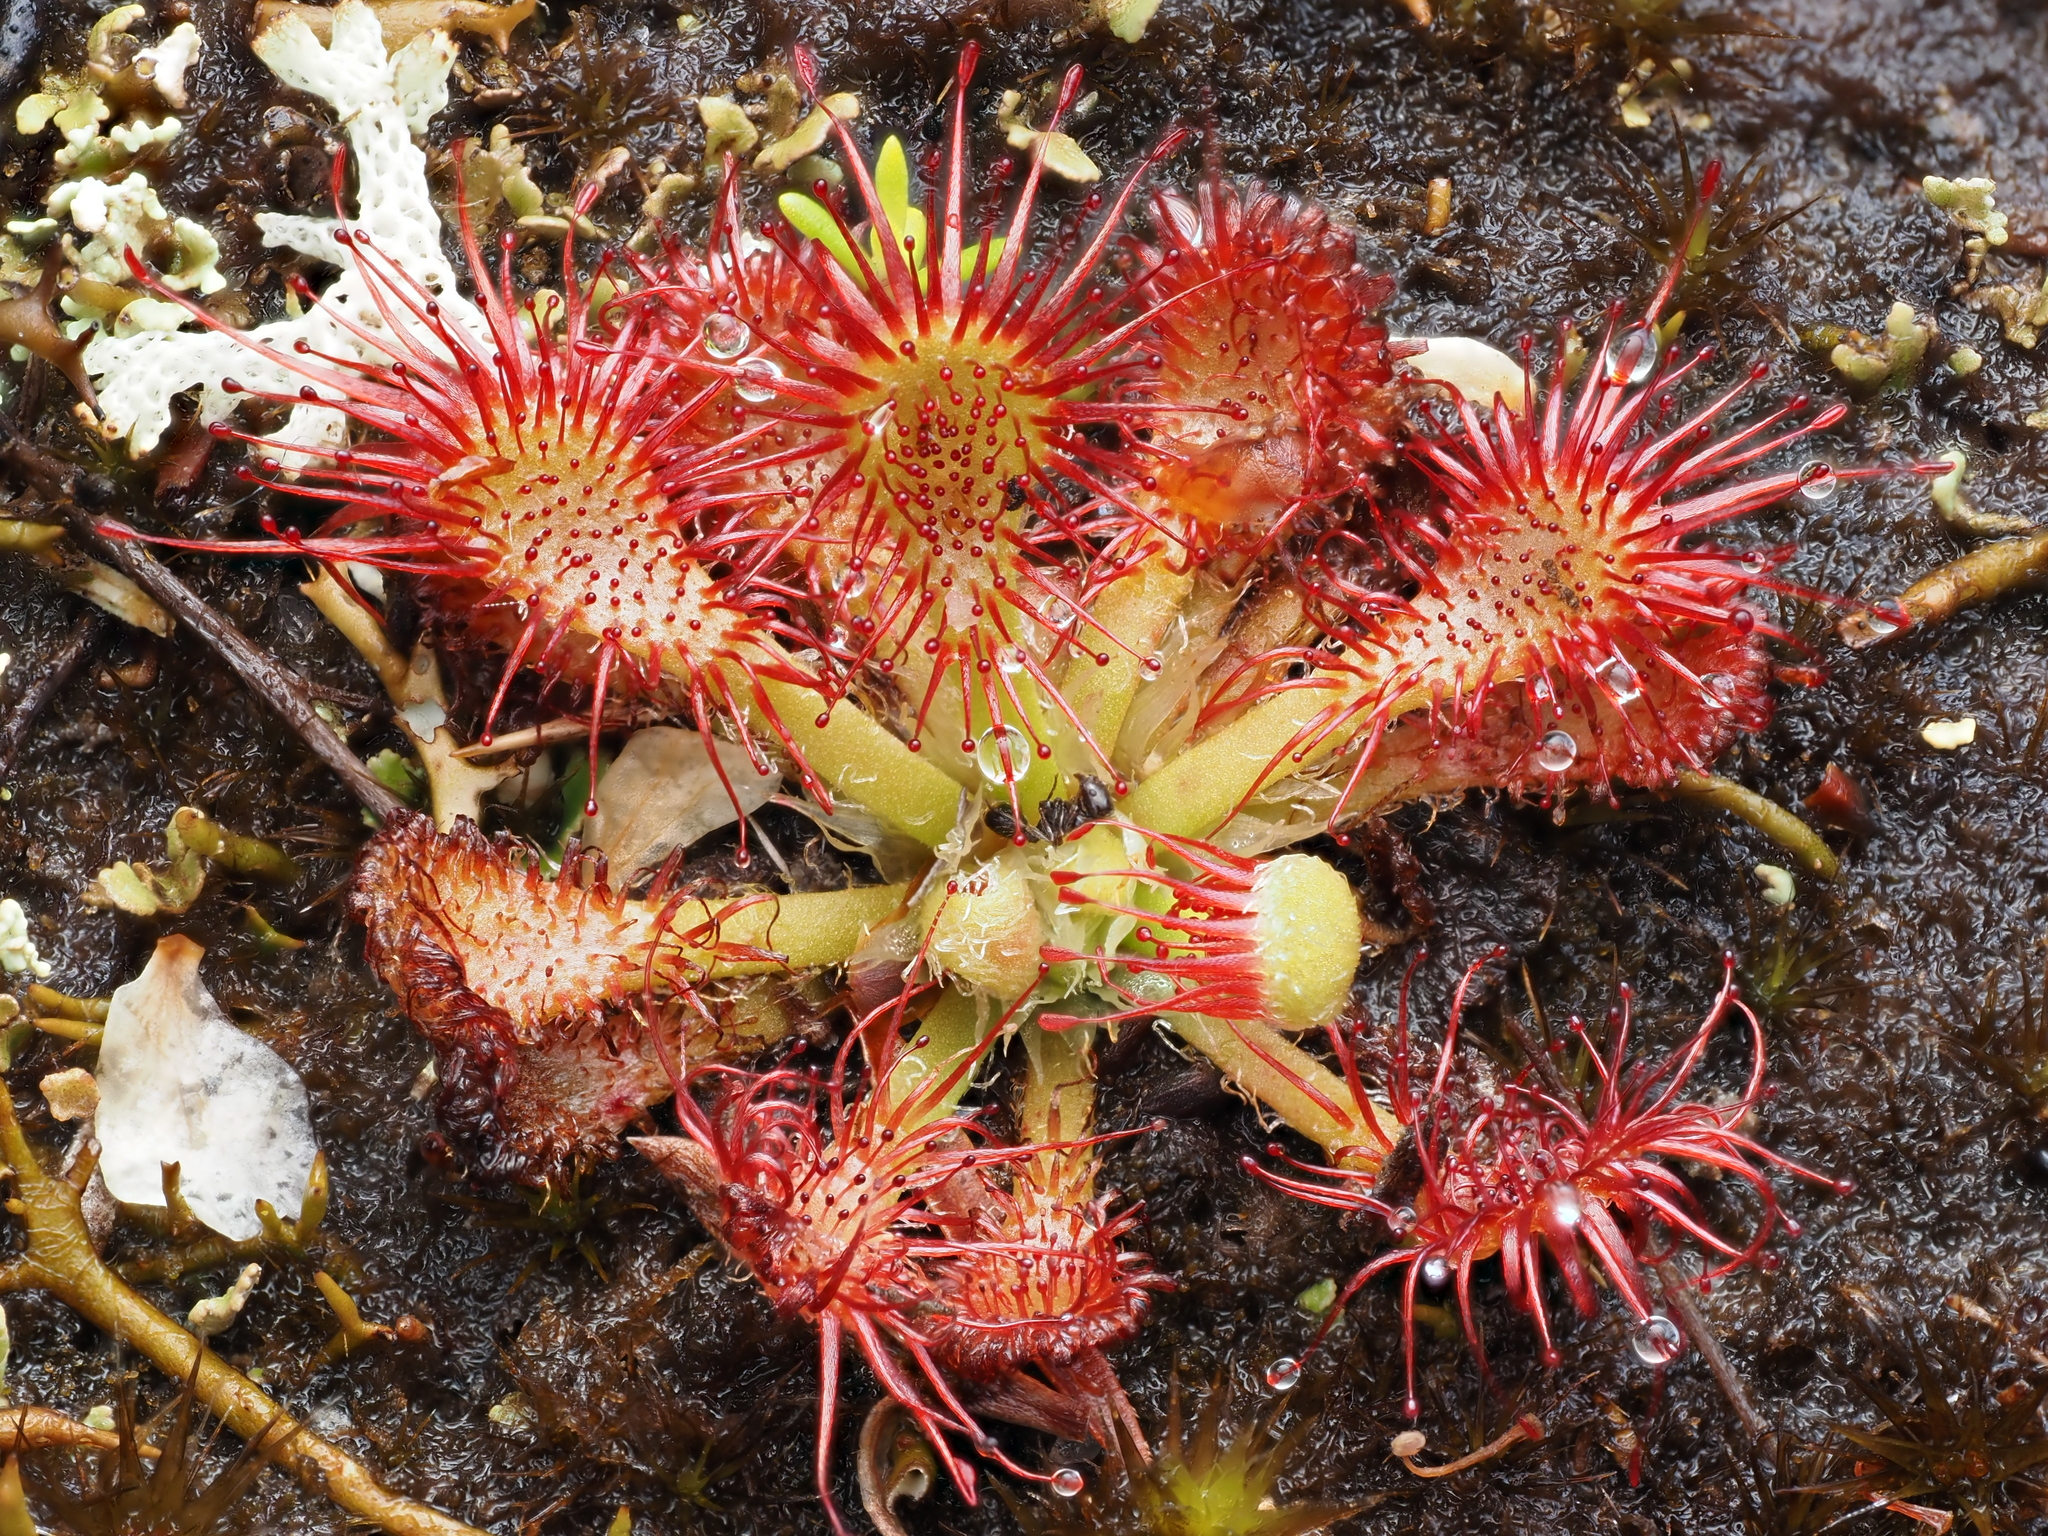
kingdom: Plantae
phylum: Tracheophyta
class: Magnoliopsida
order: Caryophyllales
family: Droseraceae
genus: Drosera
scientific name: Drosera spatulata
